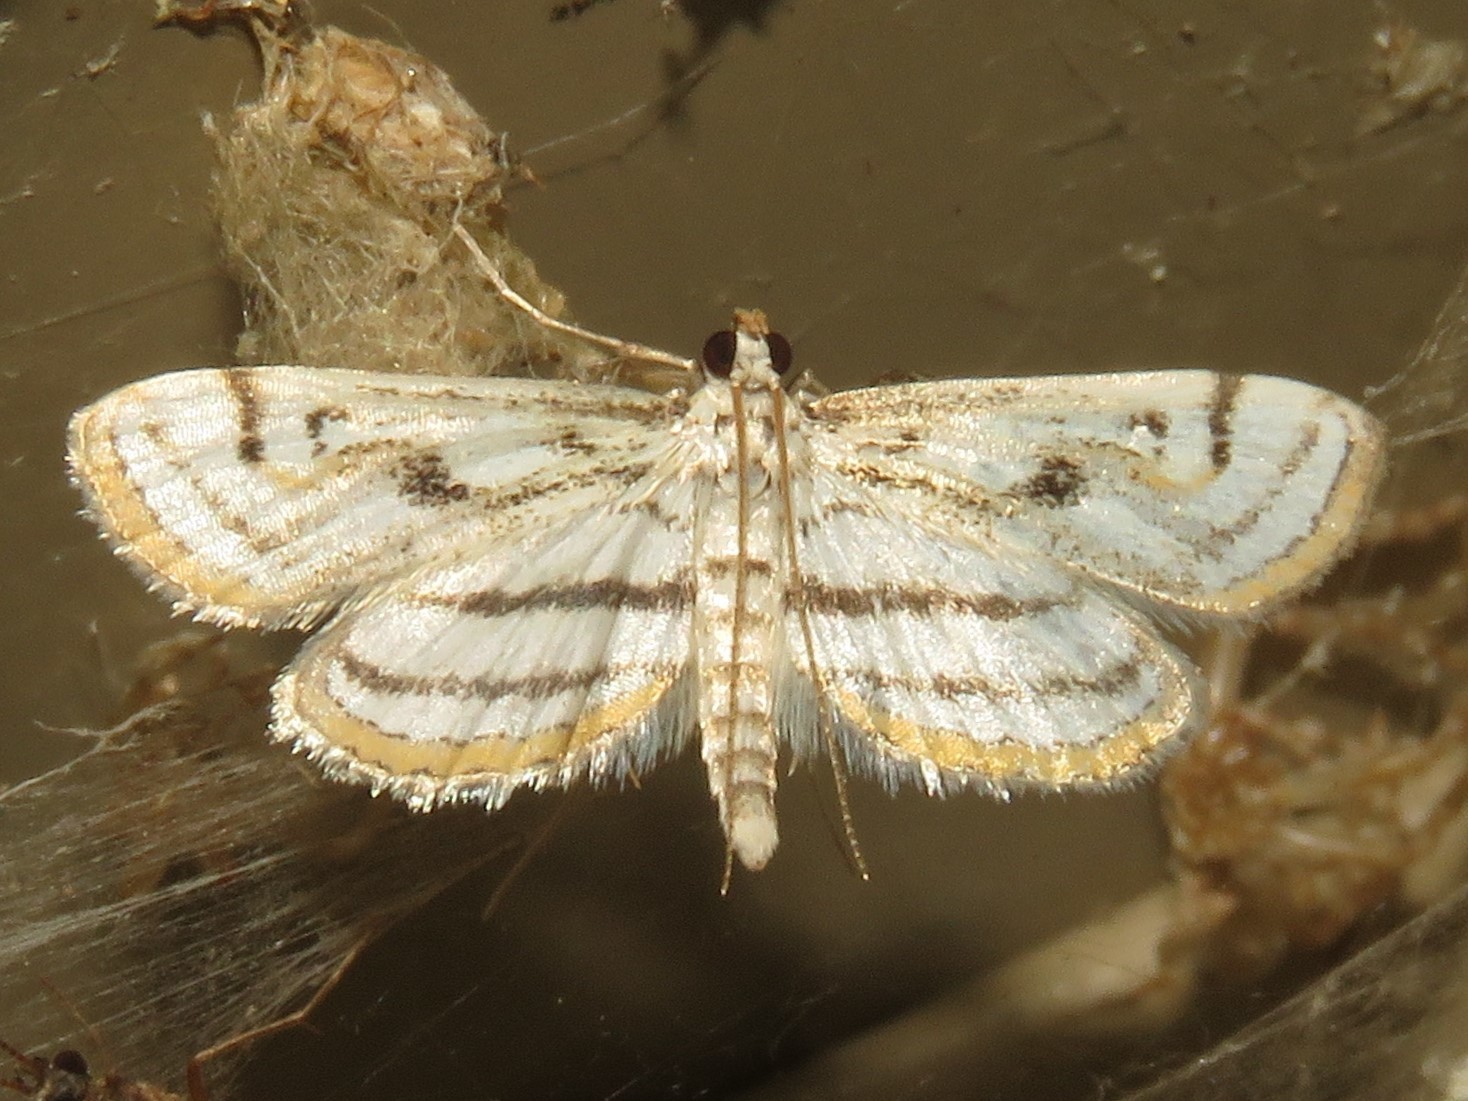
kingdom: Animalia
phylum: Arthropoda
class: Insecta
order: Lepidoptera
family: Crambidae
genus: Parapoynx
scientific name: Parapoynx badiusalis
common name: Chestnut-marked pondweed moth
